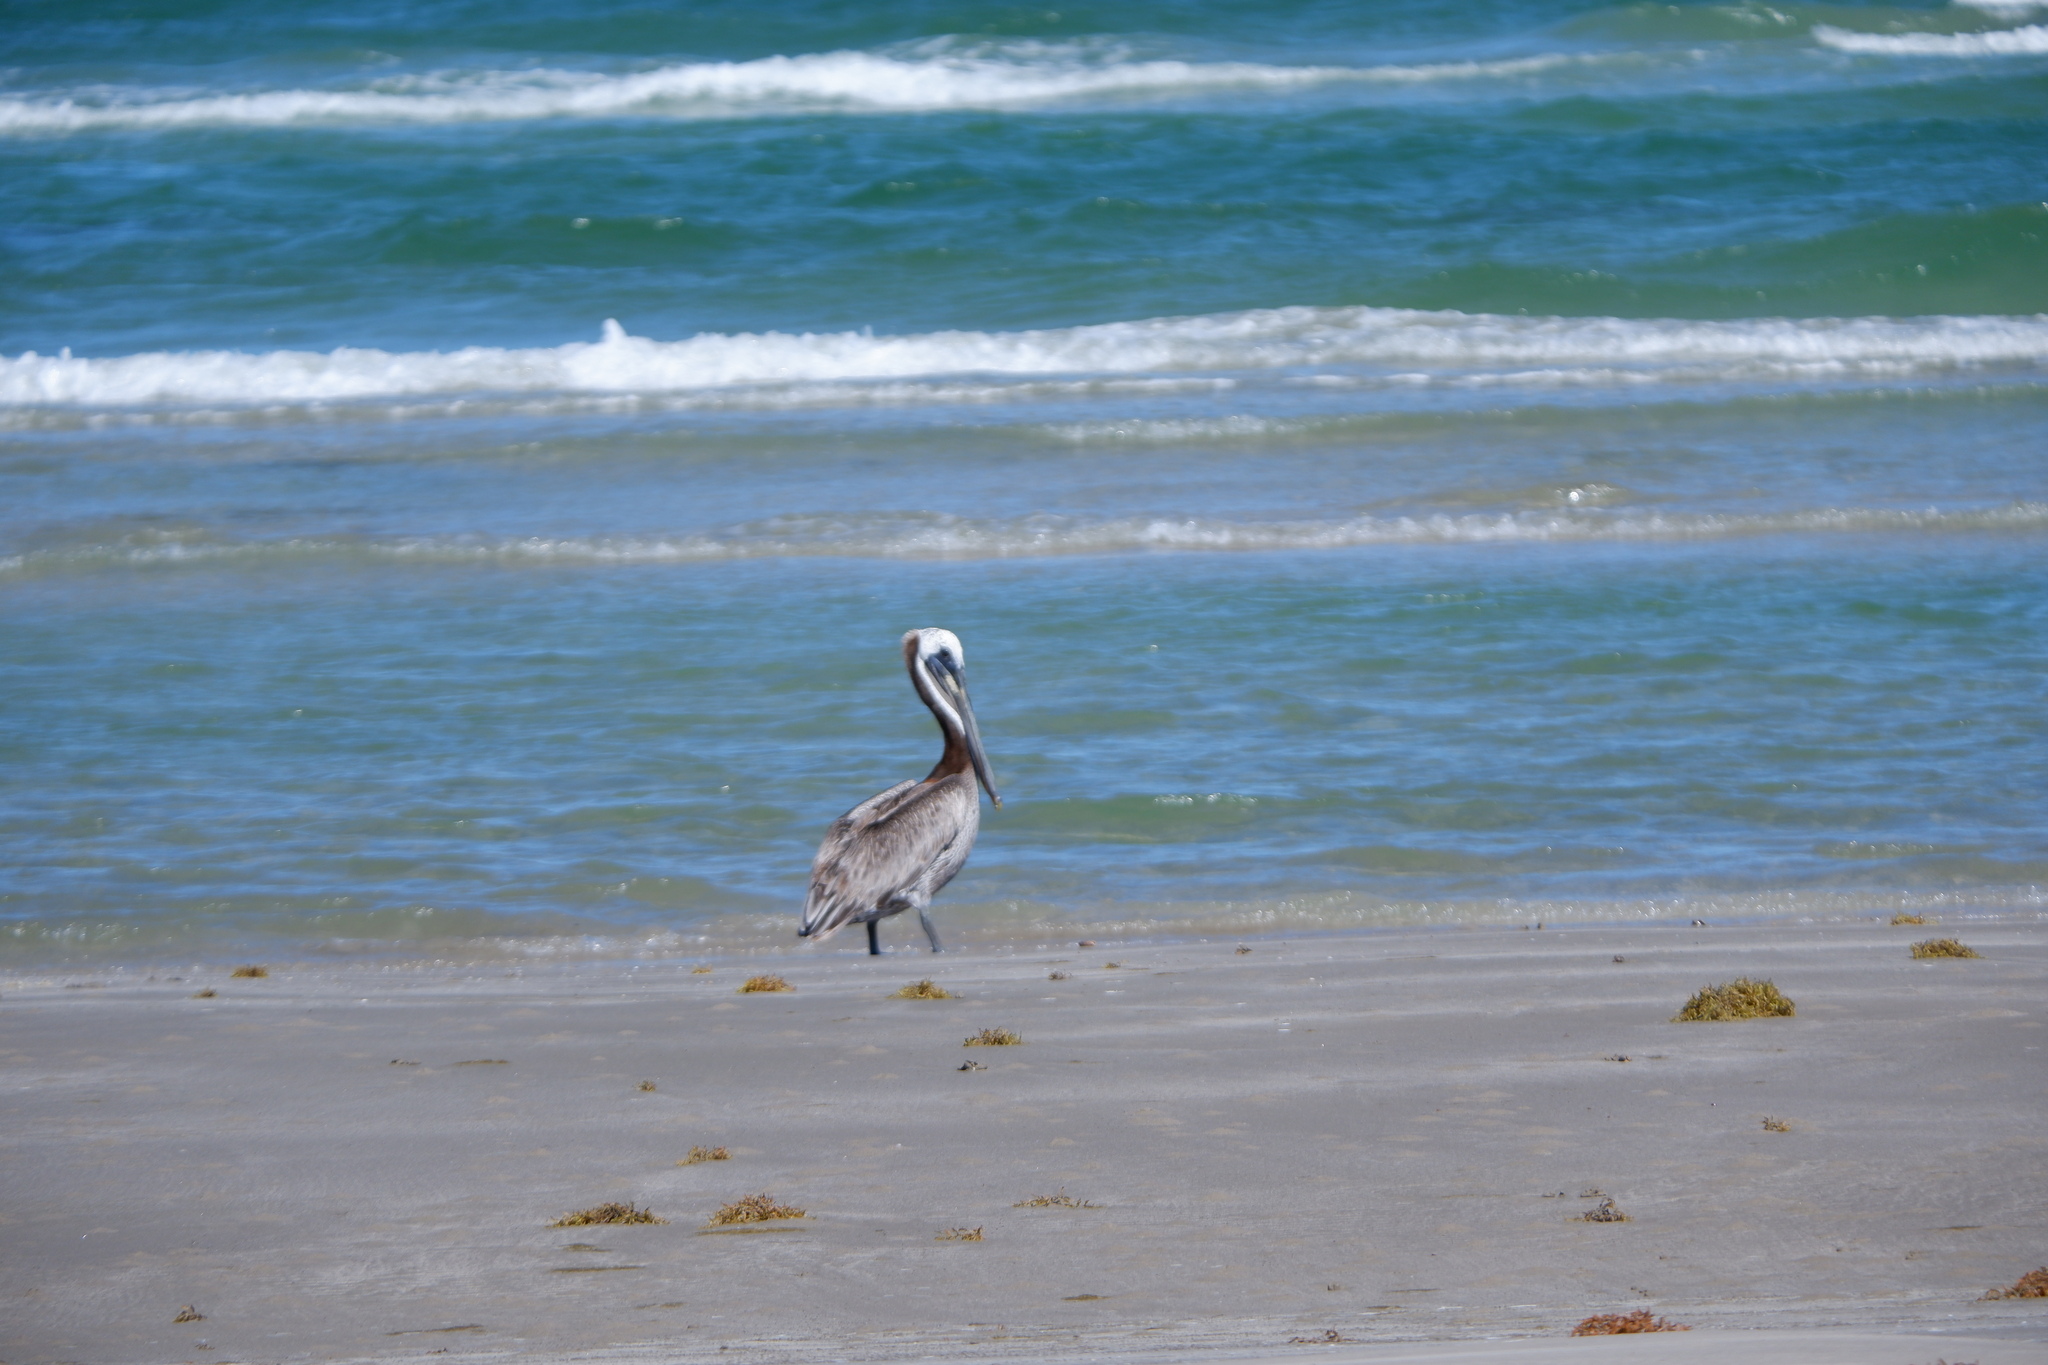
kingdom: Animalia
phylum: Chordata
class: Aves
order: Pelecaniformes
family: Pelecanidae
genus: Pelecanus
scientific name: Pelecanus occidentalis
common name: Brown pelican
